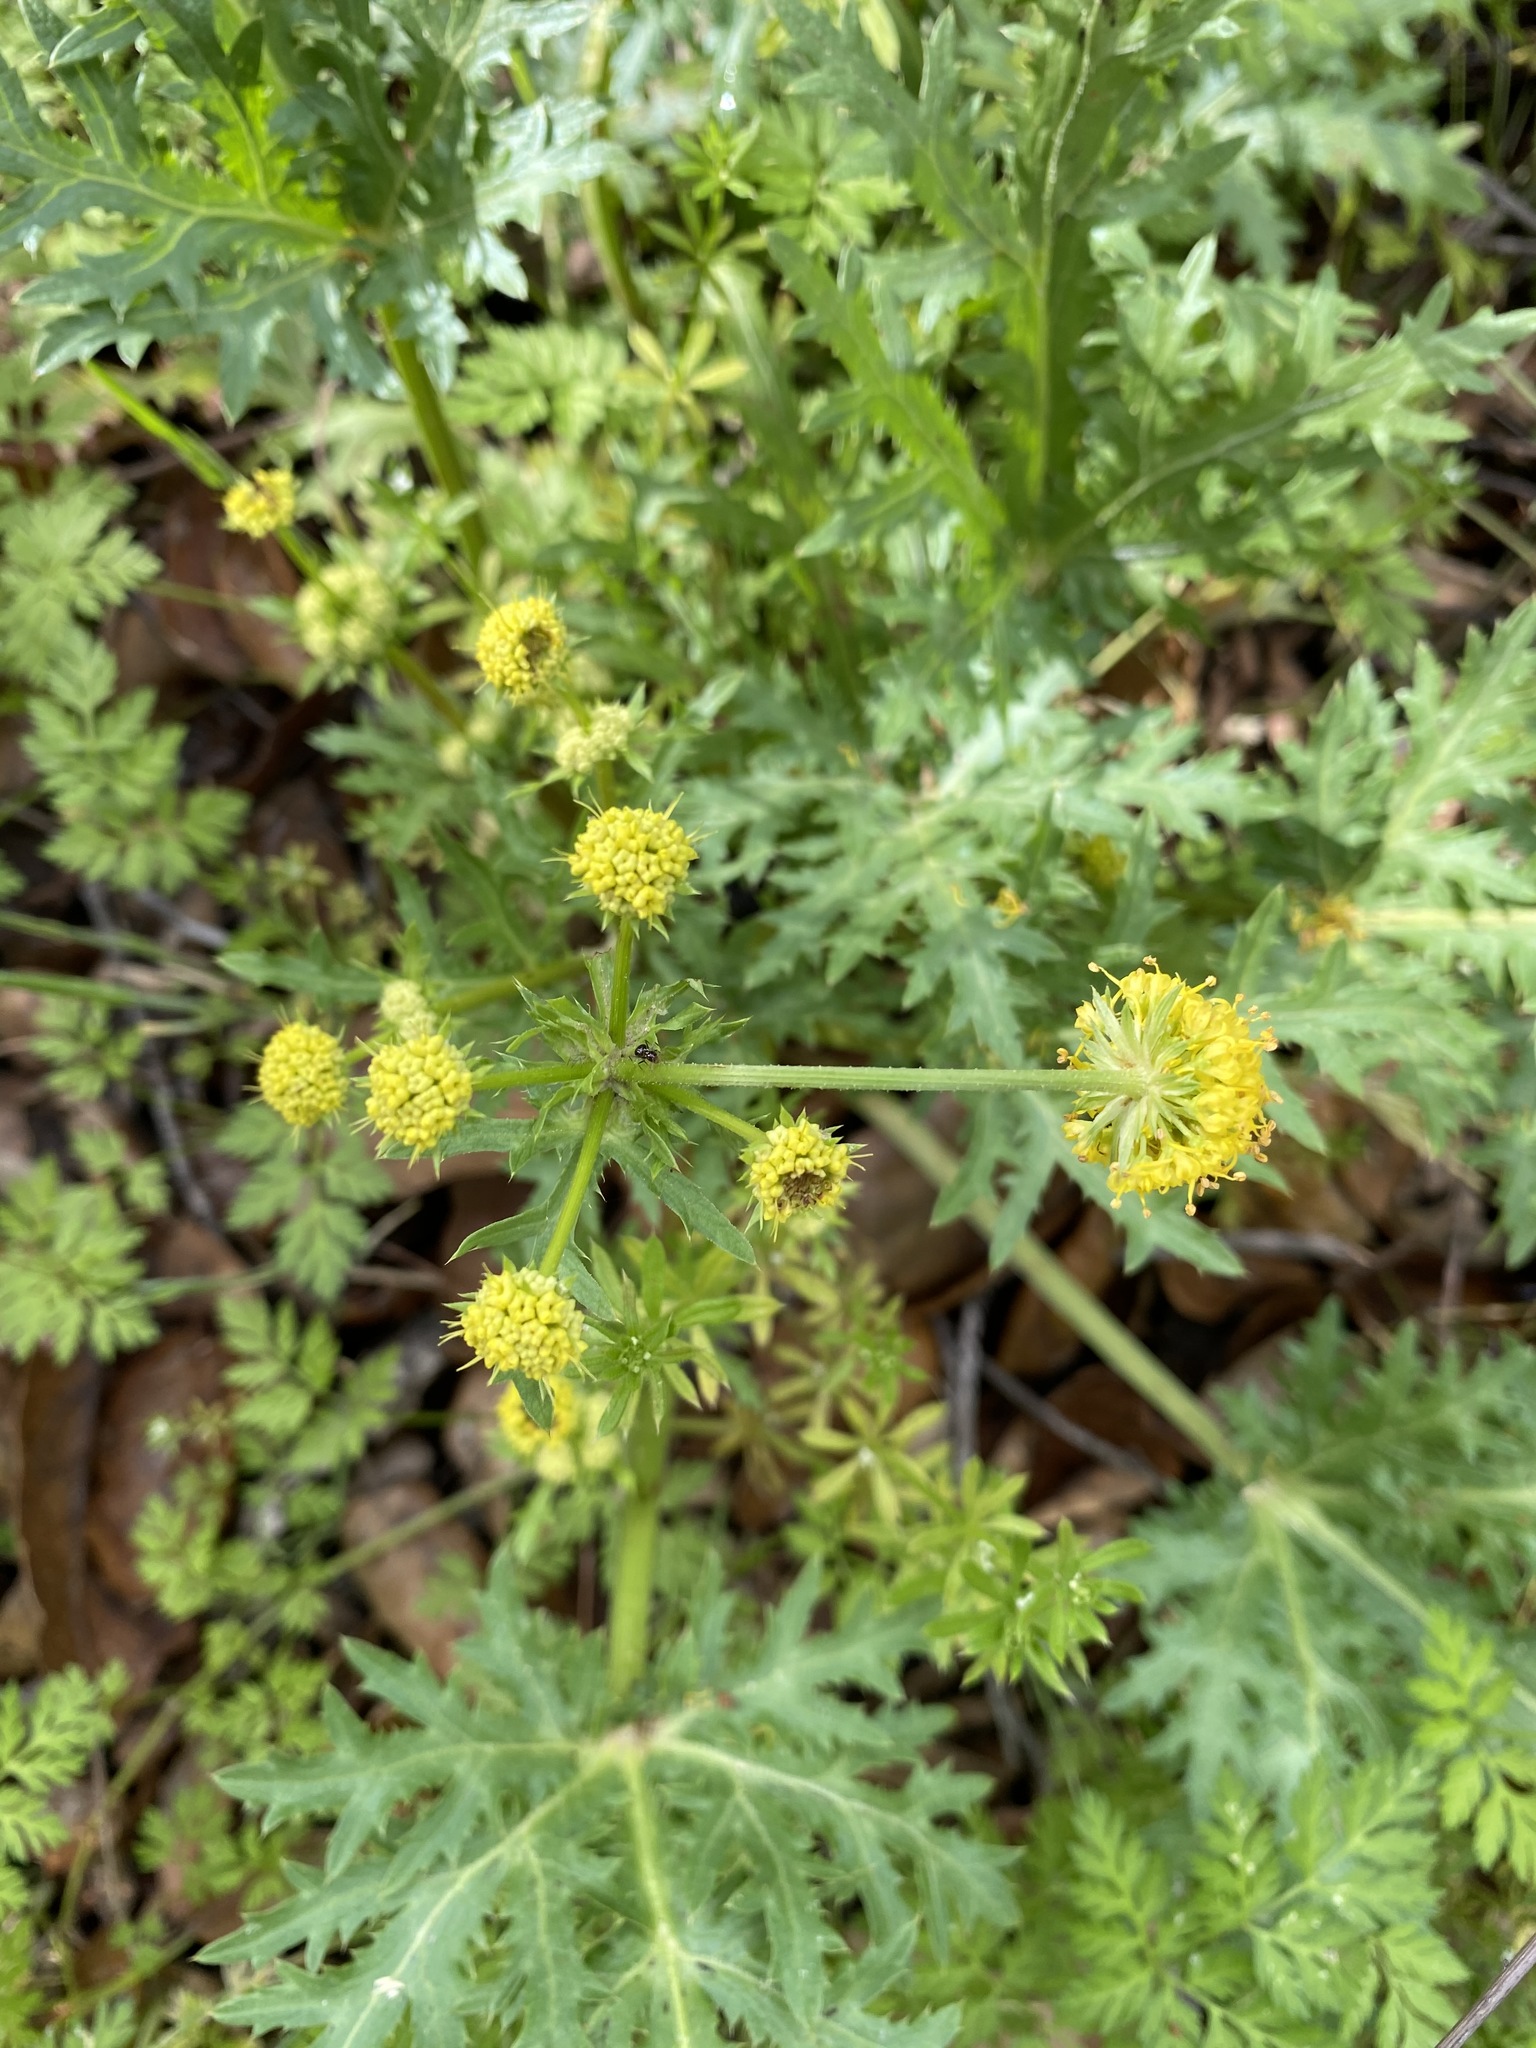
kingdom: Plantae
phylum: Tracheophyta
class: Magnoliopsida
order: Apiales
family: Apiaceae
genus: Sanicula
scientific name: Sanicula arguta
